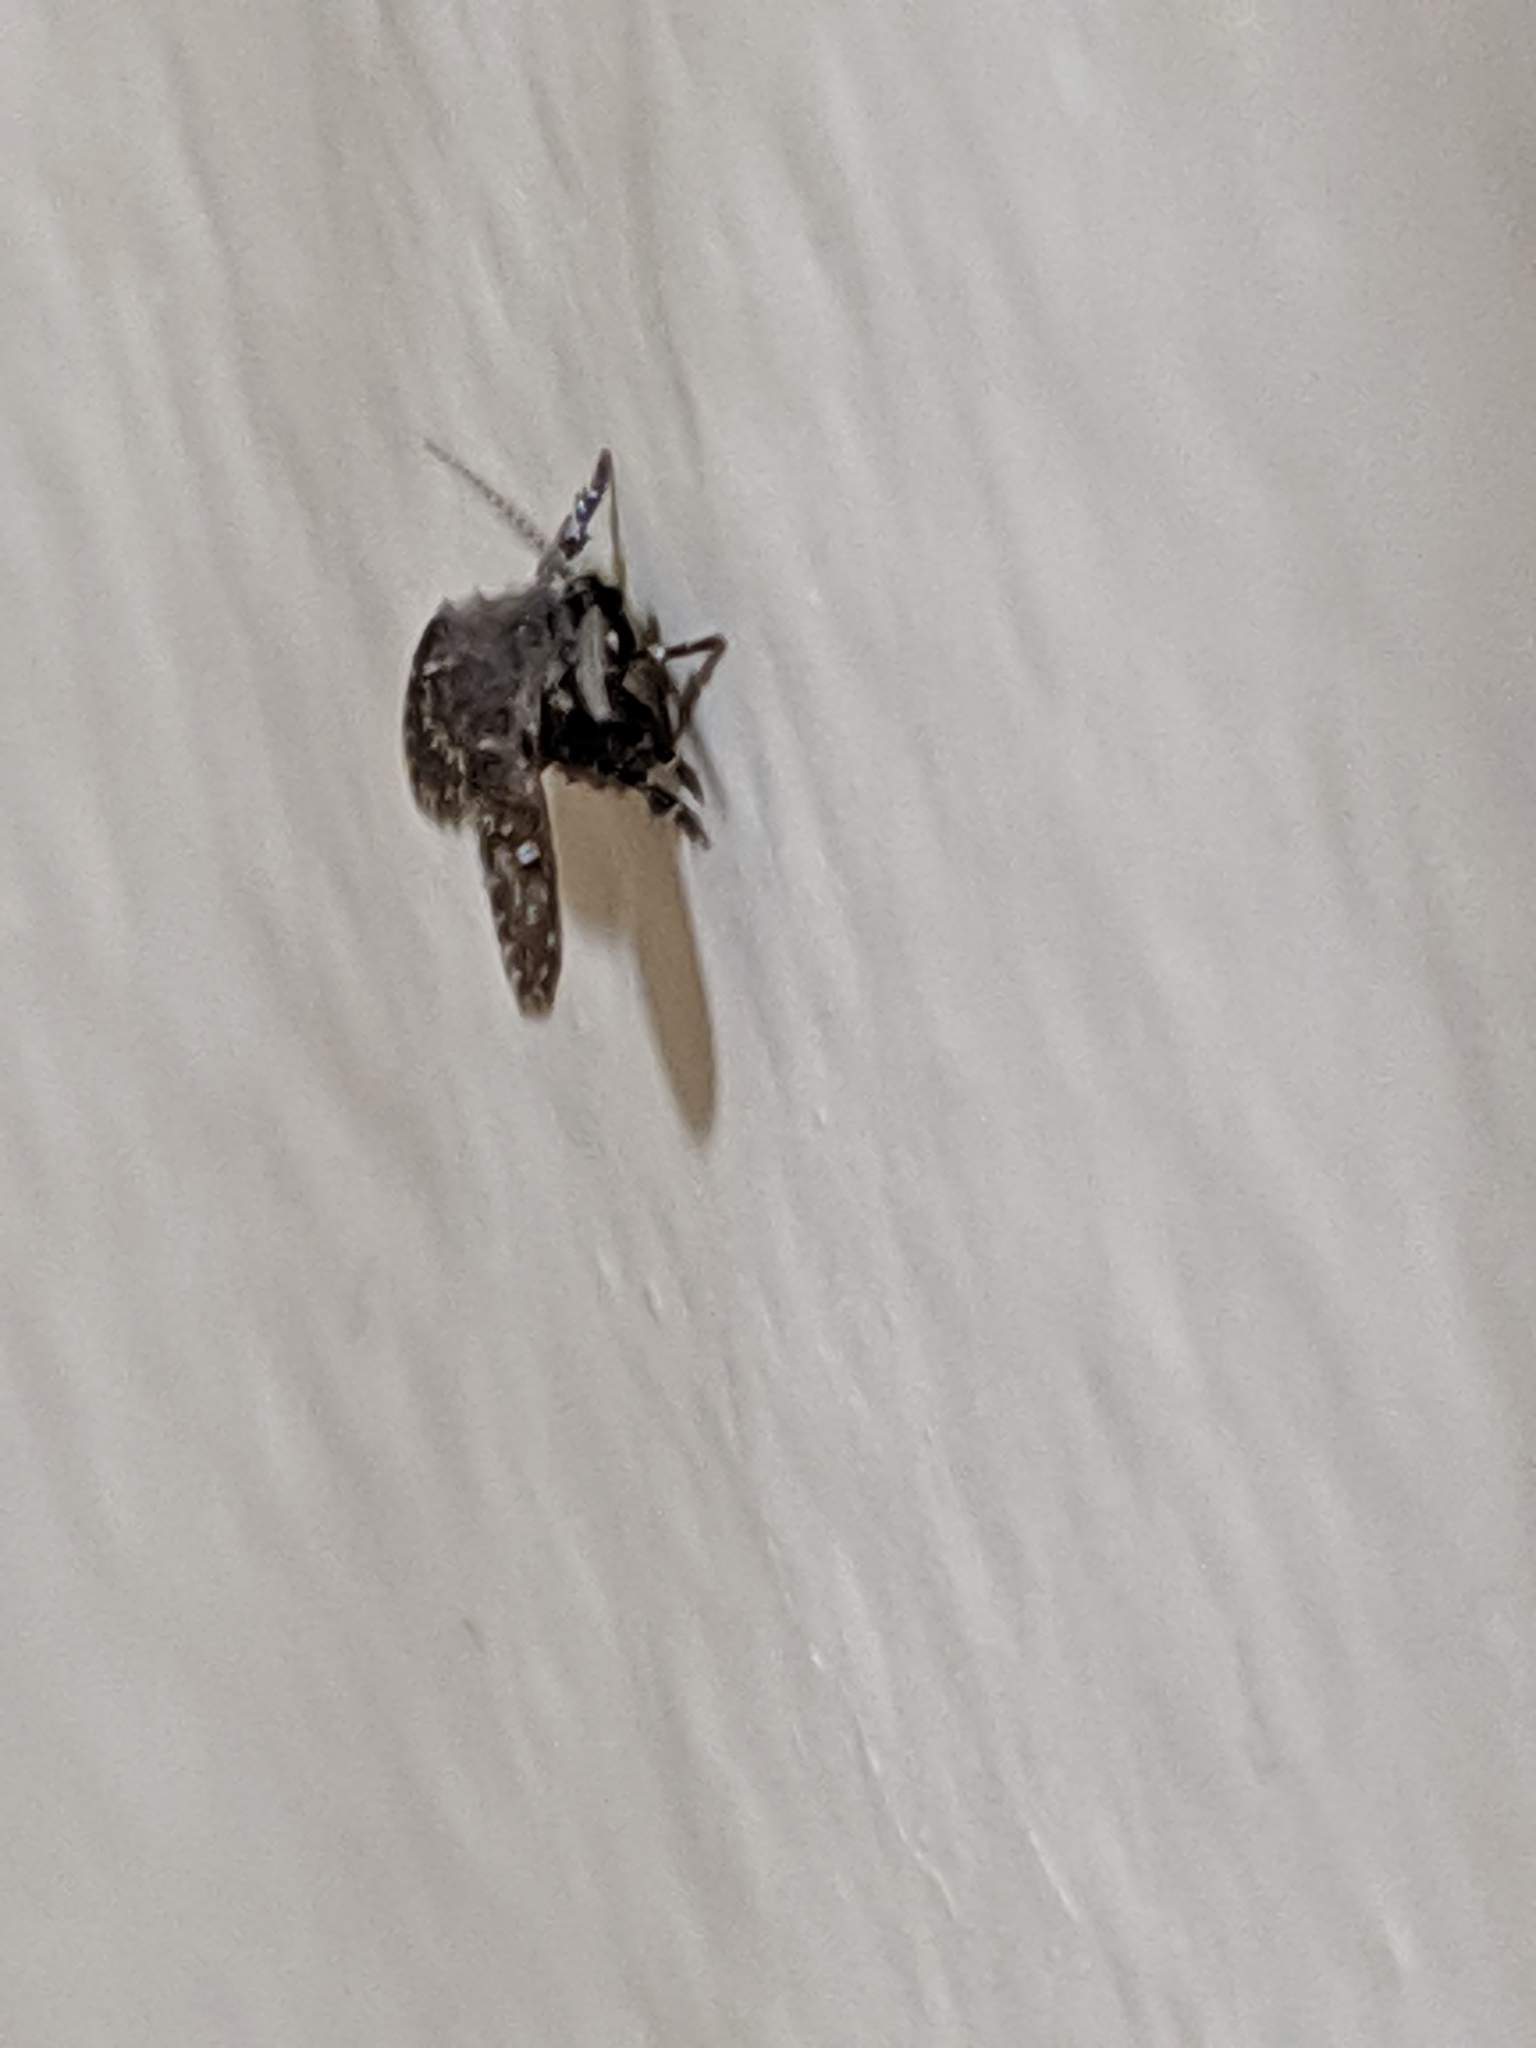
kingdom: Animalia
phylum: Arthropoda
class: Insecta
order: Diptera
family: Psychodidae
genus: Clogmia
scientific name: Clogmia albipunctatus
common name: White-spotted moth fly
